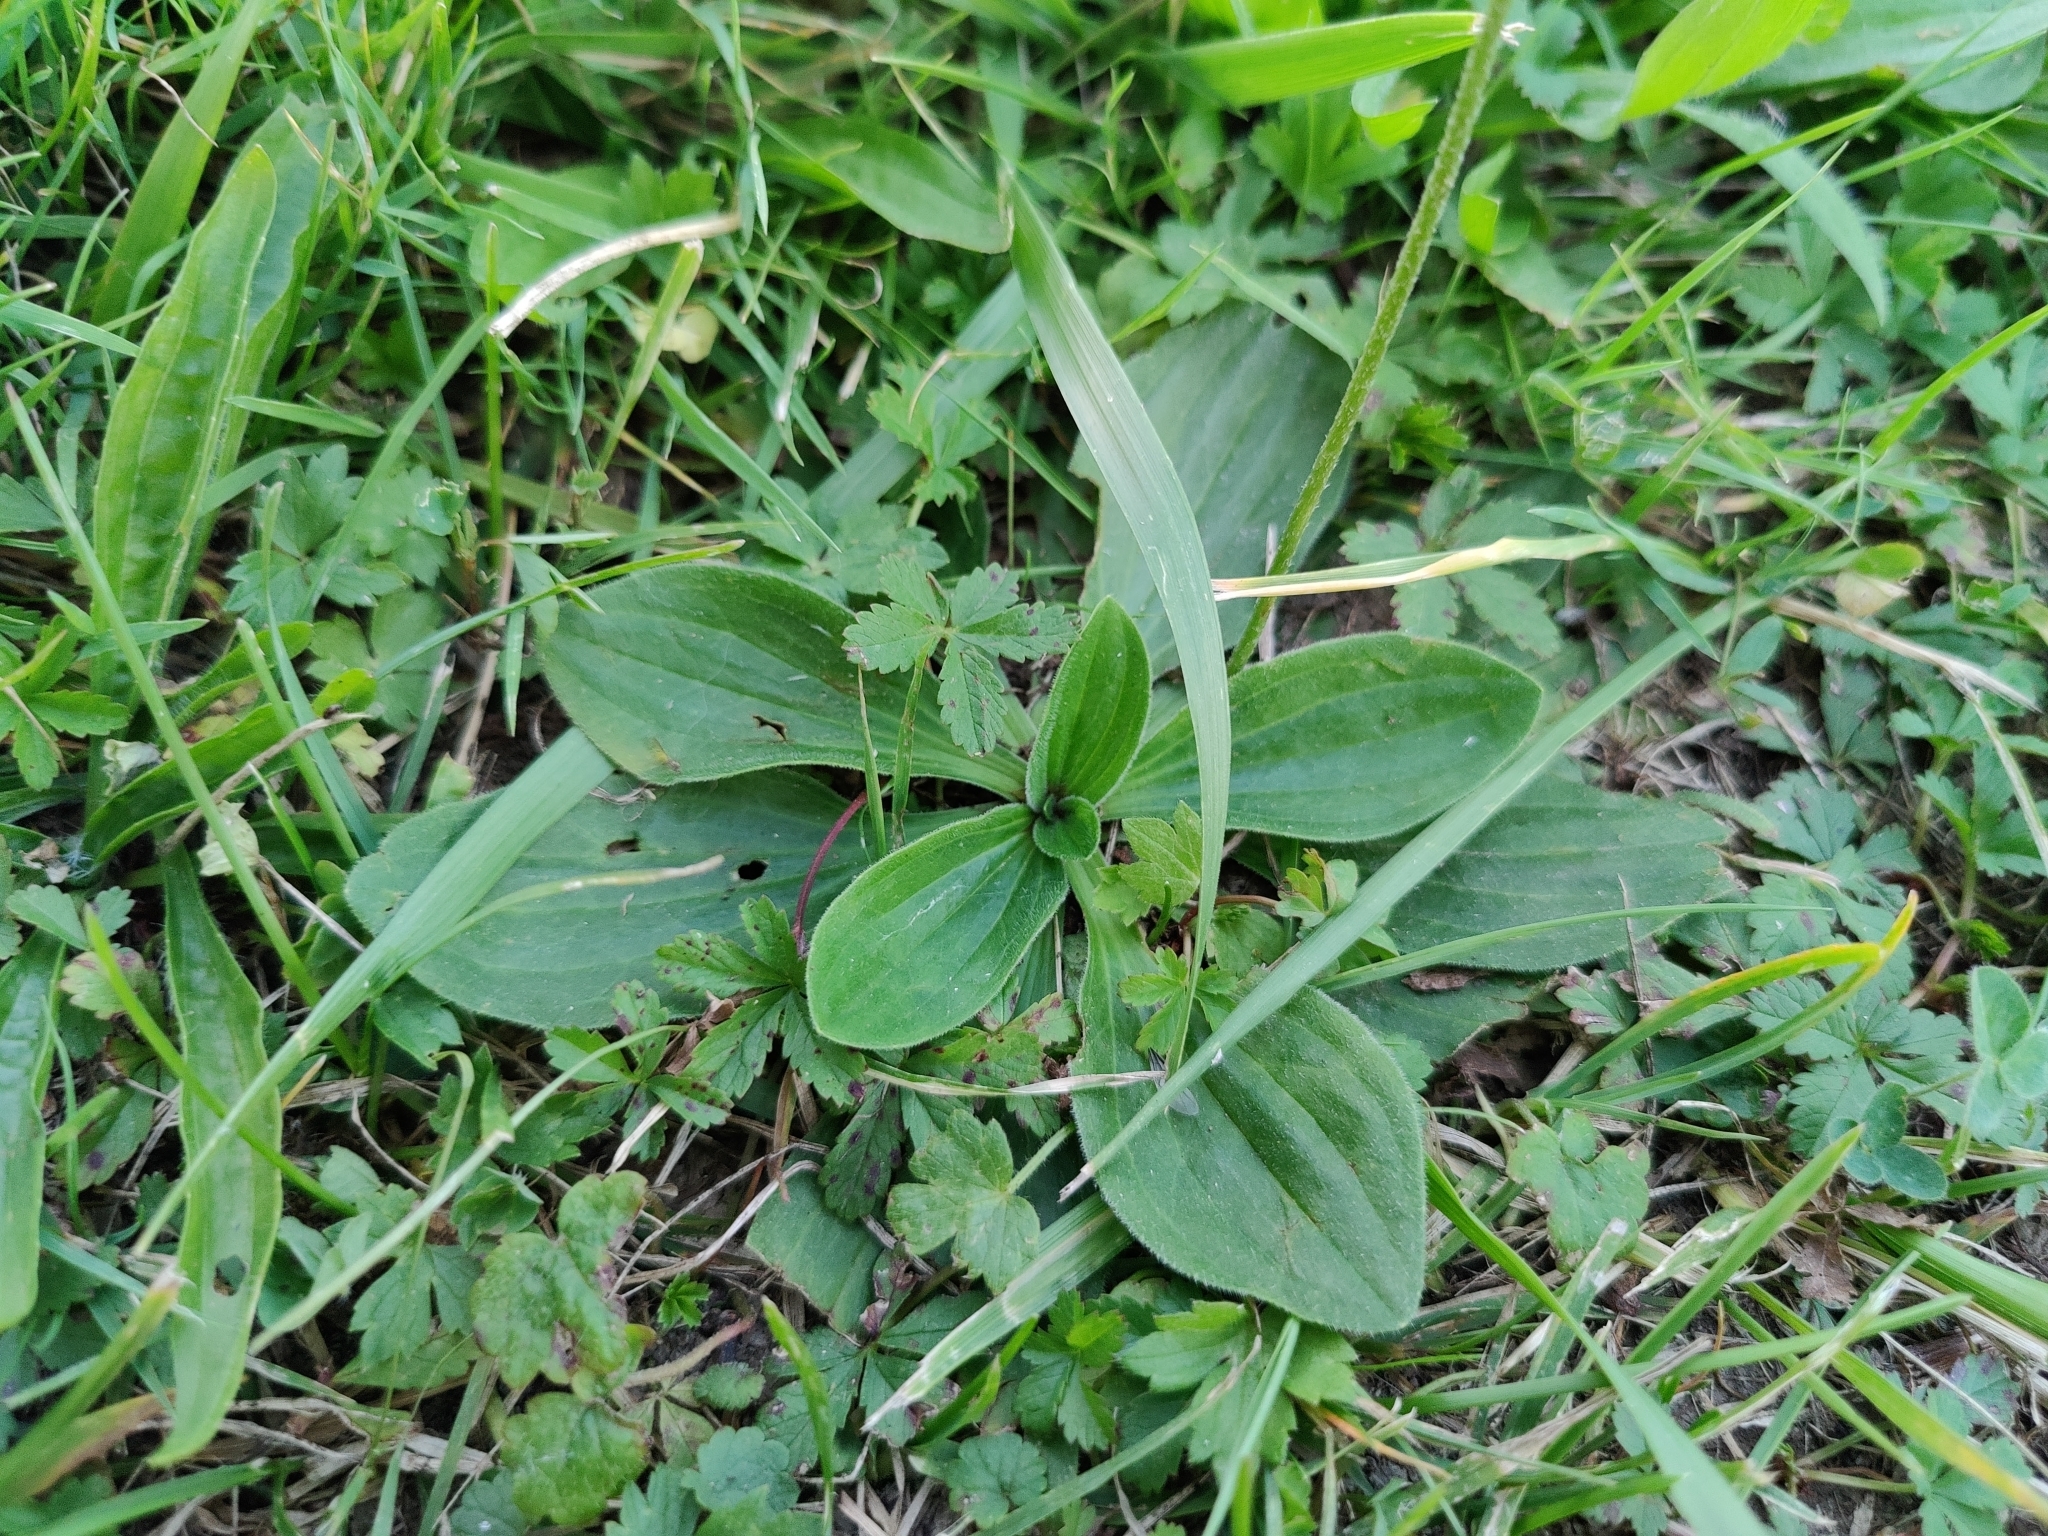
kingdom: Plantae
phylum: Tracheophyta
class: Magnoliopsida
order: Lamiales
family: Plantaginaceae
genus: Plantago
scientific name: Plantago media
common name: Hoary plantain
